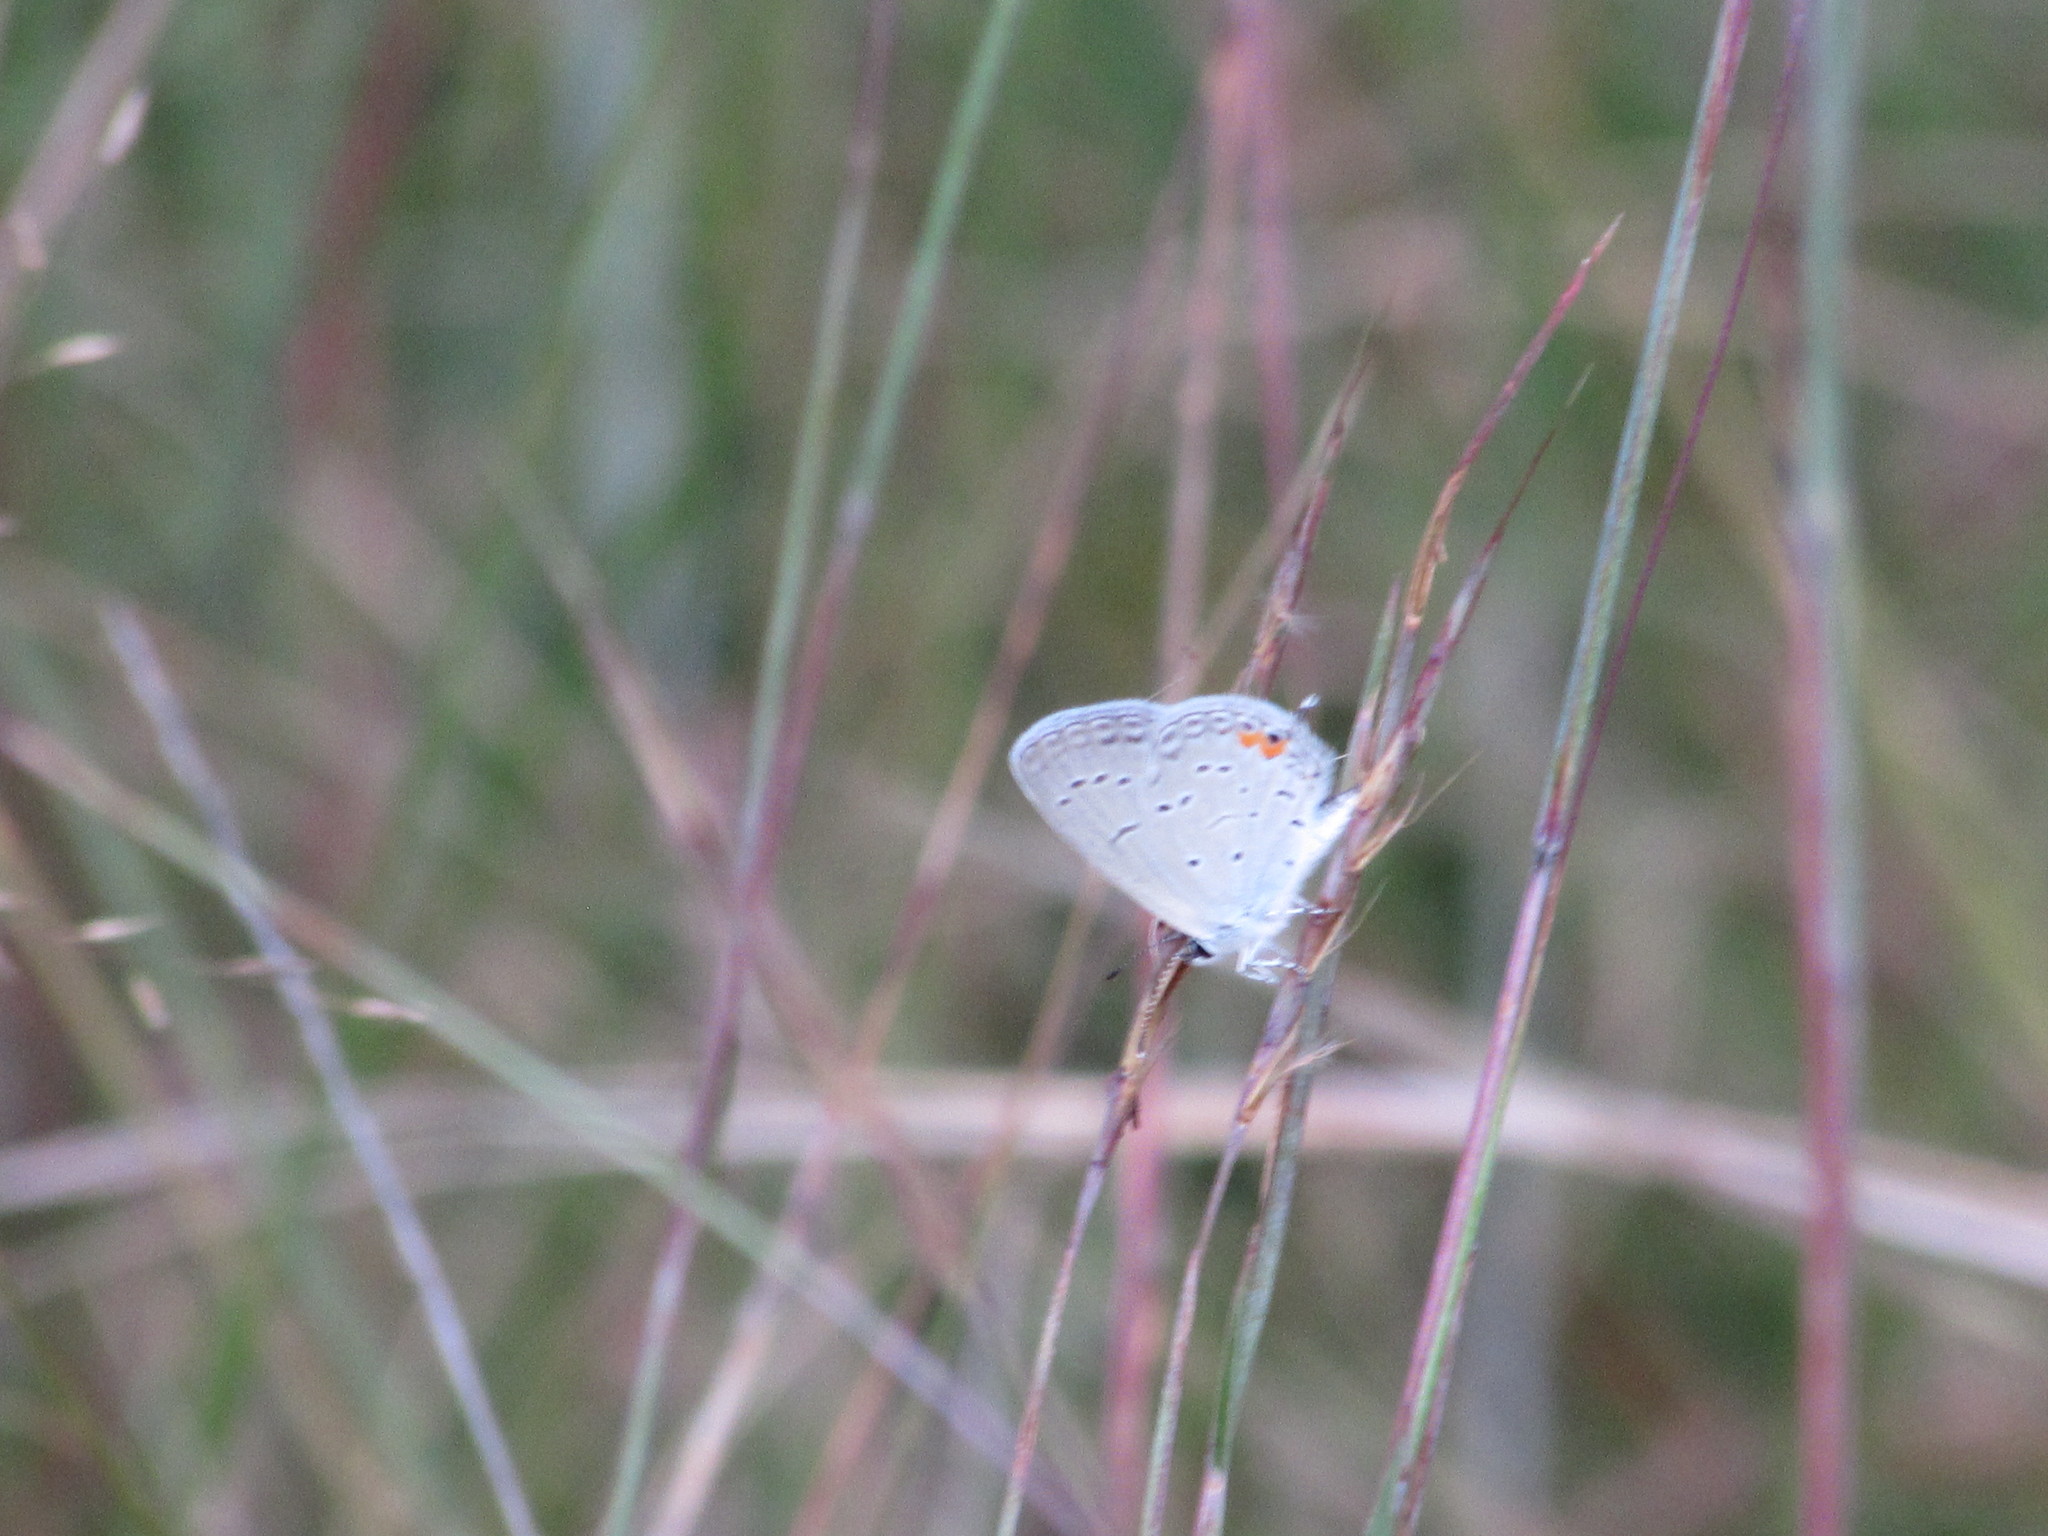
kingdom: Animalia
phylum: Arthropoda
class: Insecta
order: Lepidoptera
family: Lycaenidae
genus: Elkalyce
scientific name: Elkalyce comyntas
